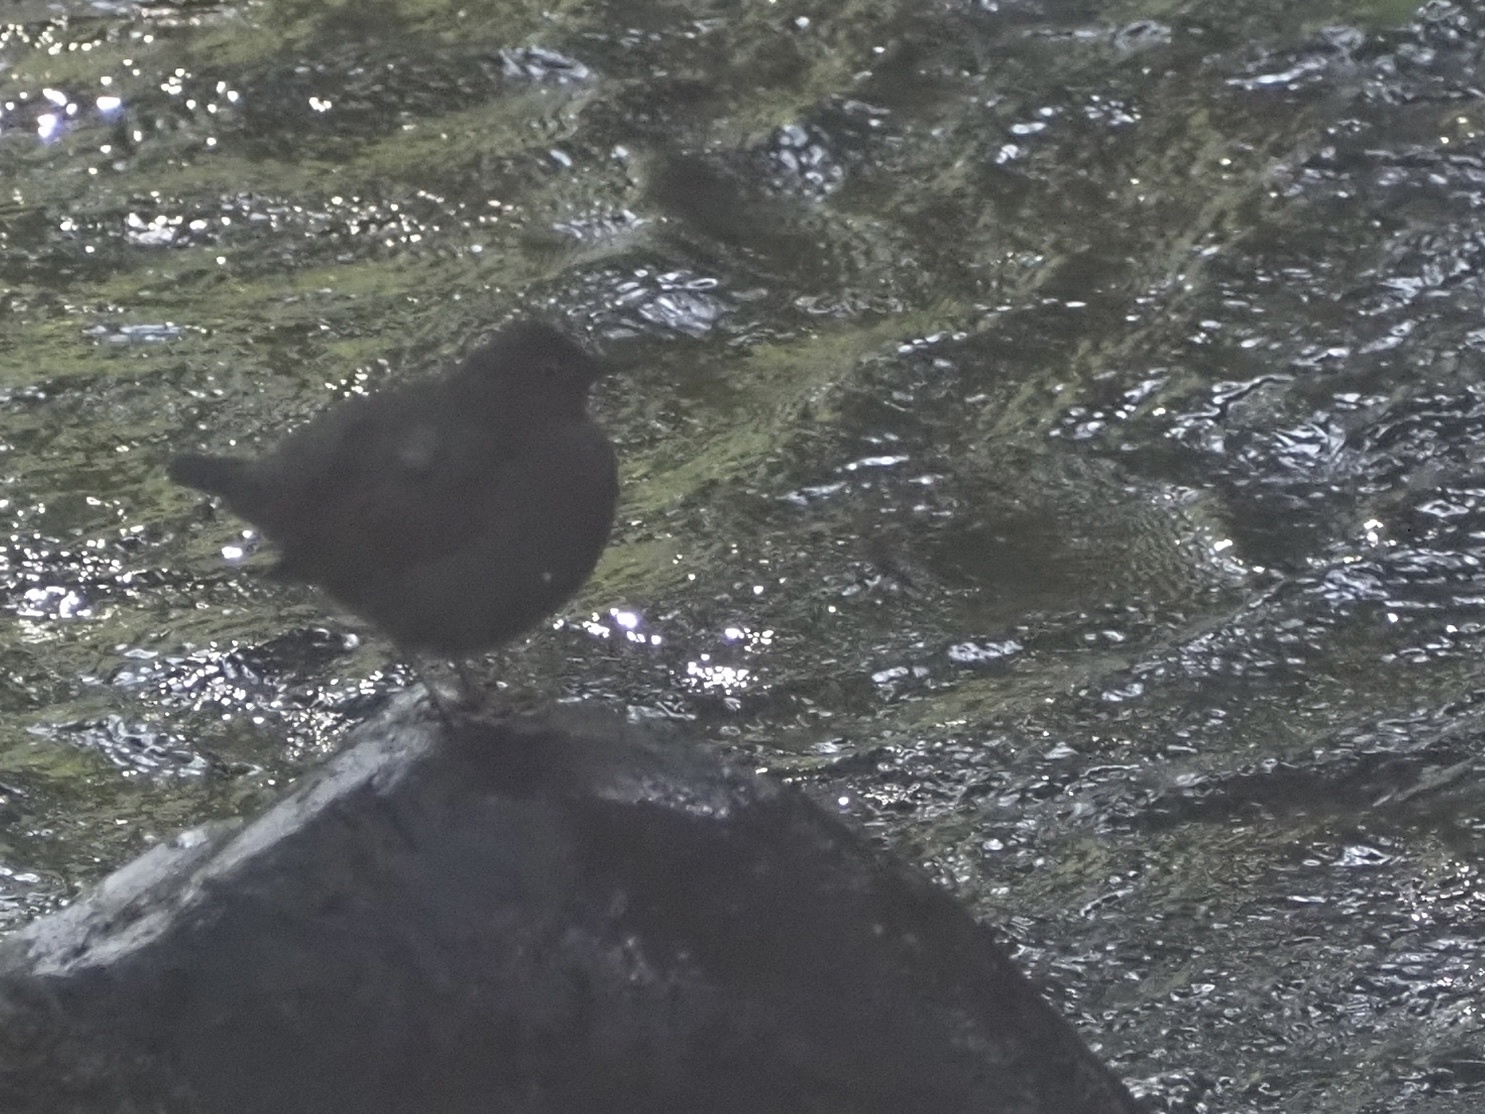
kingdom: Animalia
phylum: Chordata
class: Aves
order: Passeriformes
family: Cinclidae
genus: Cinclus
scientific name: Cinclus mexicanus
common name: American dipper
